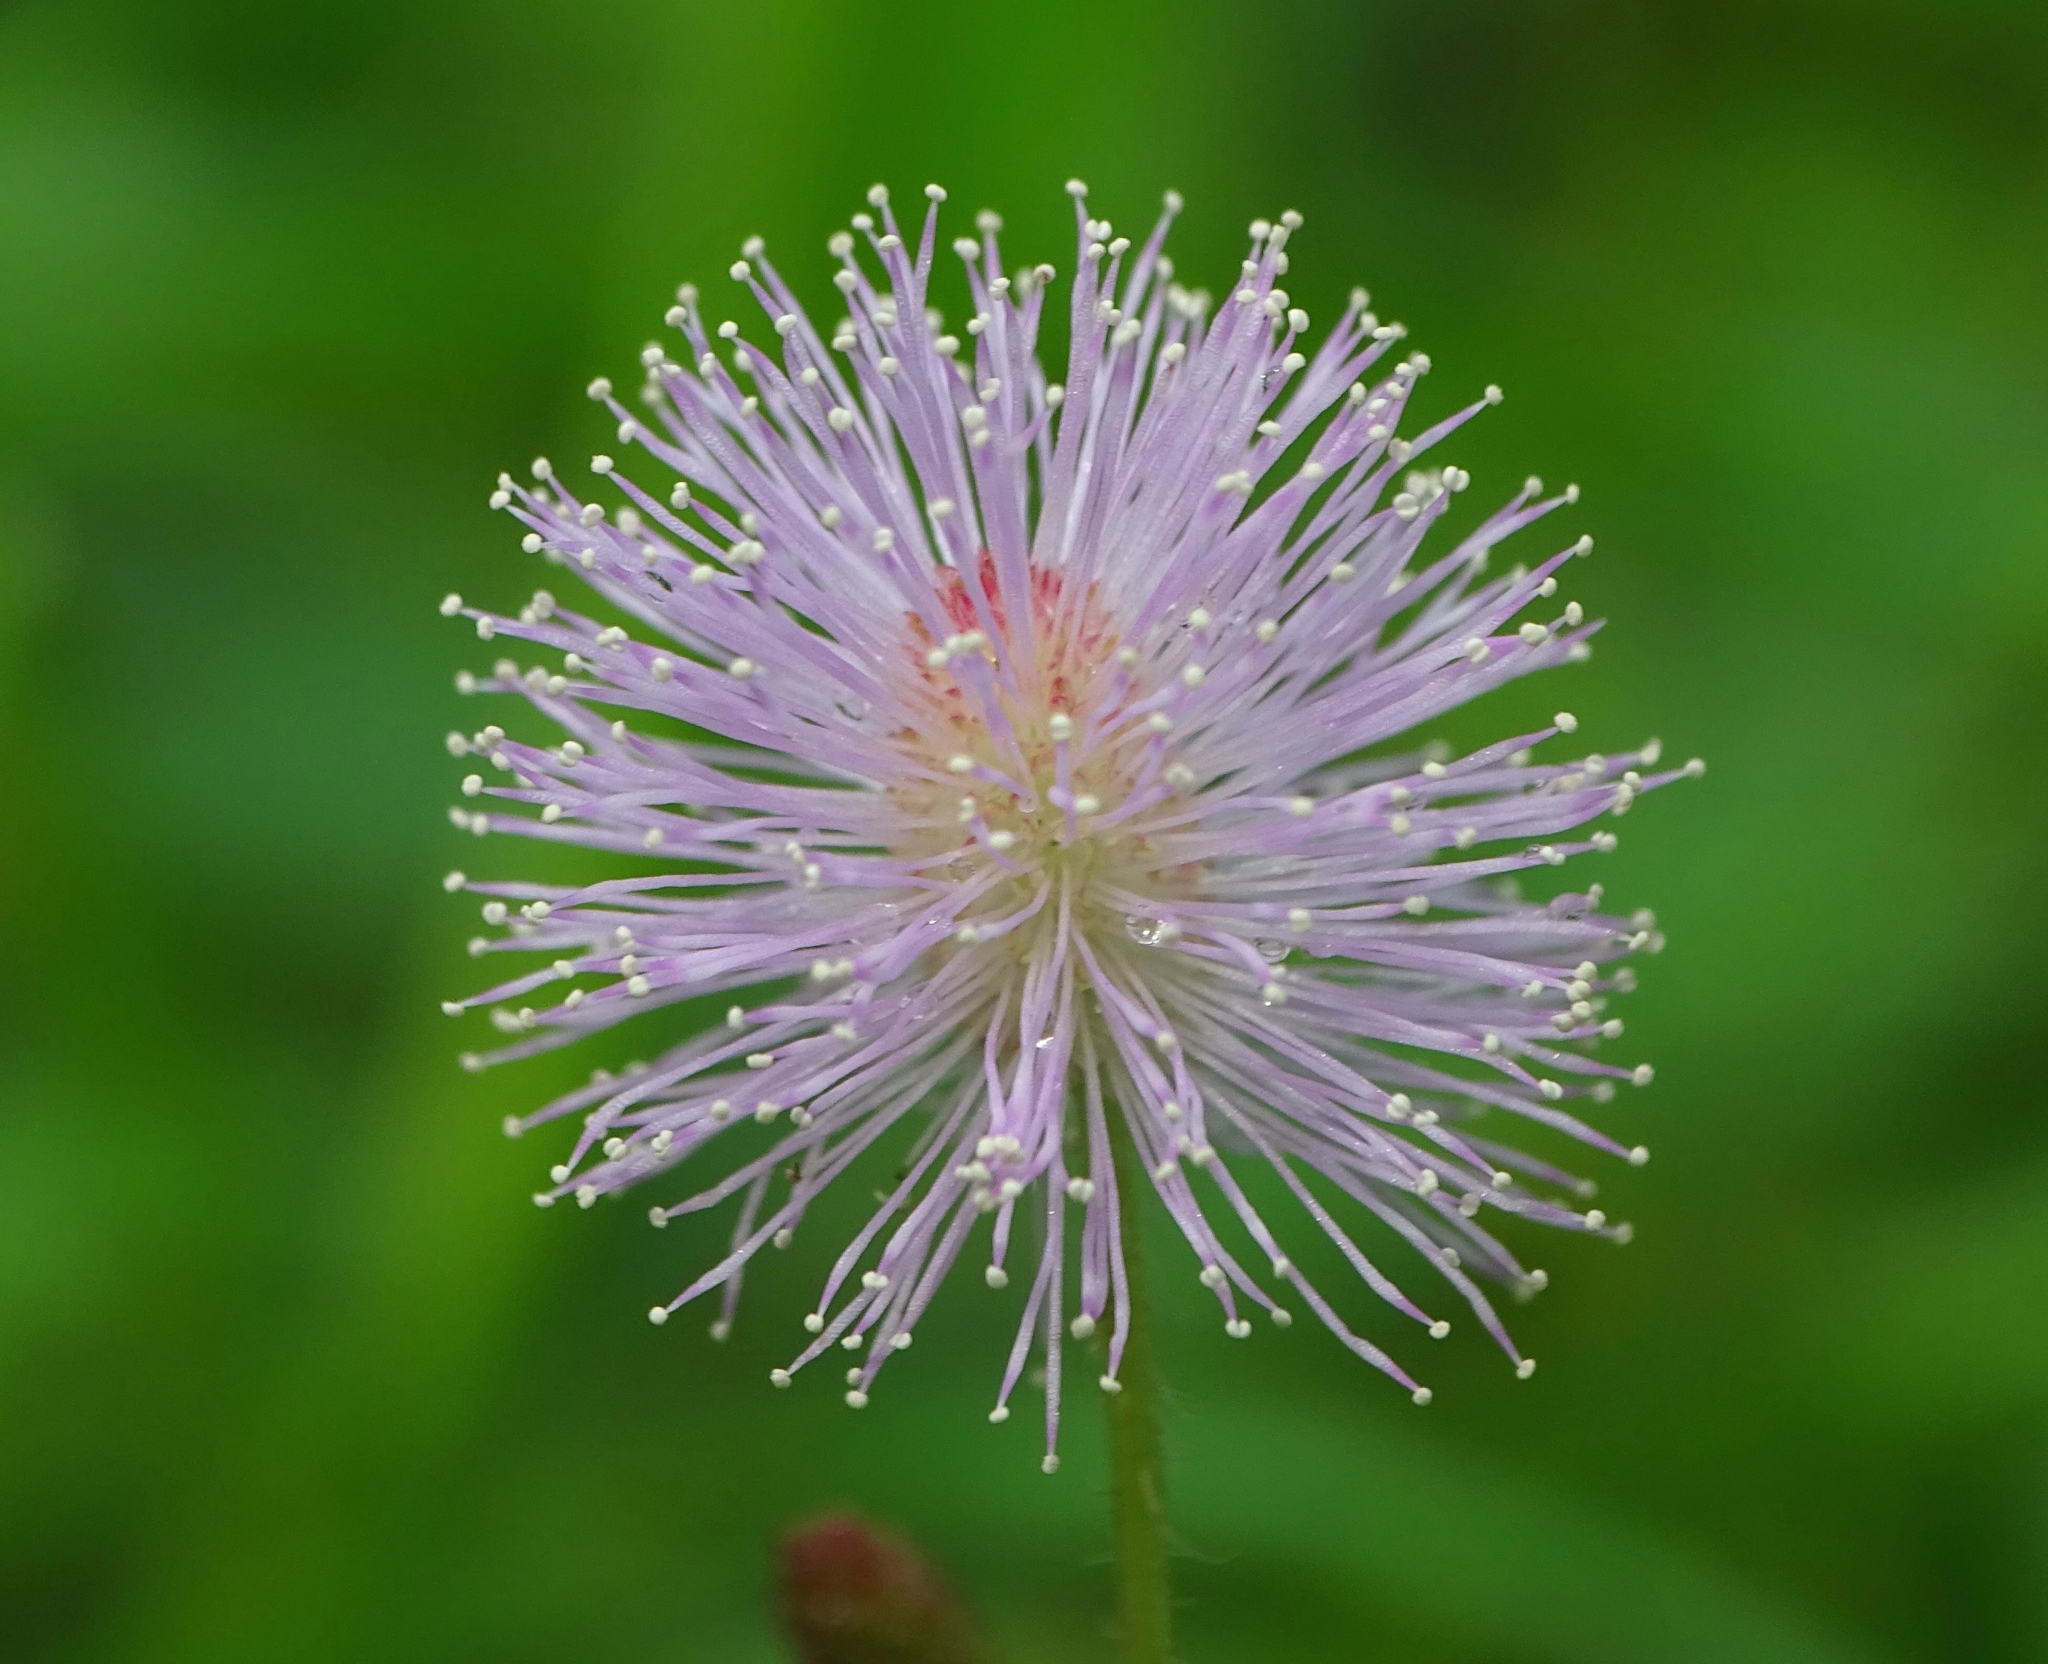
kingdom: Plantae
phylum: Tracheophyta
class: Magnoliopsida
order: Fabales
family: Fabaceae
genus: Mimosa
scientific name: Mimosa pudica
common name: Sensitive plant
